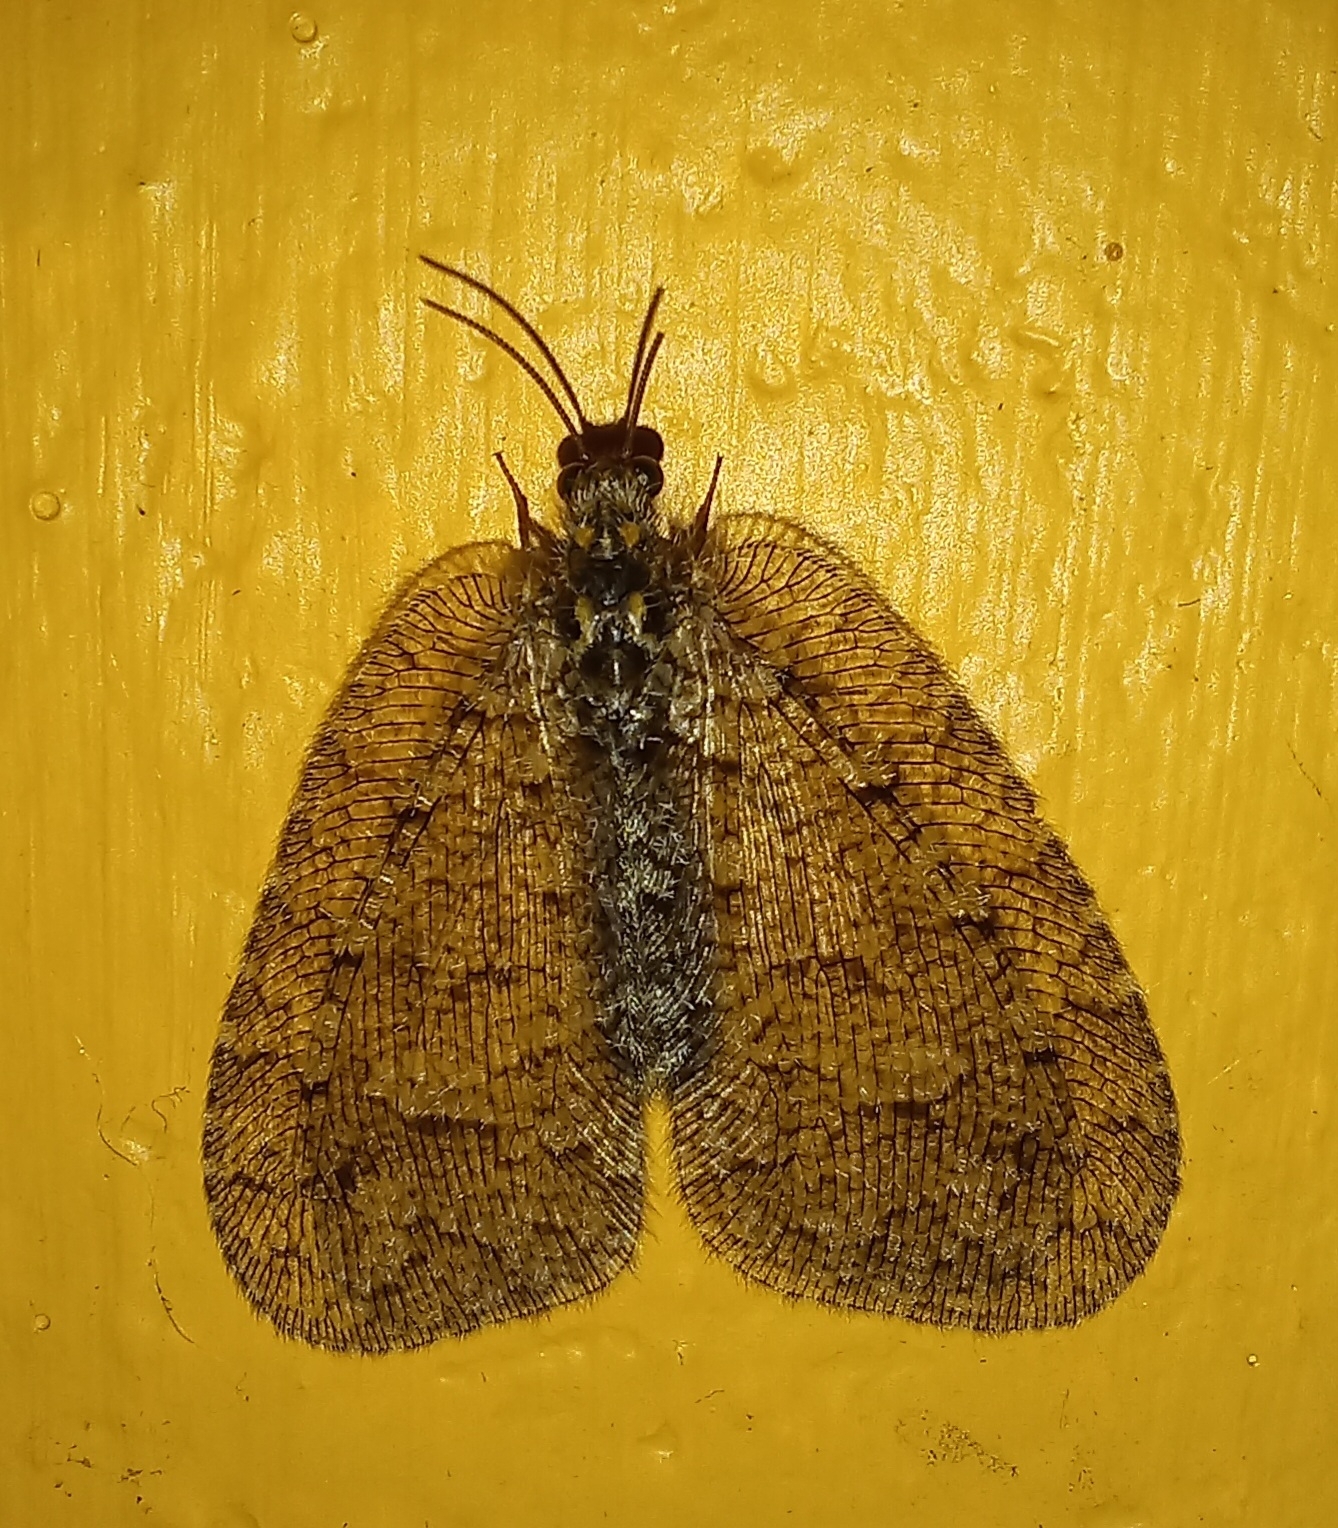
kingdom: Animalia
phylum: Arthropoda
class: Insecta
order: Neuroptera
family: Psychopsidae
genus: Silveira
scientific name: Silveira marshalli
